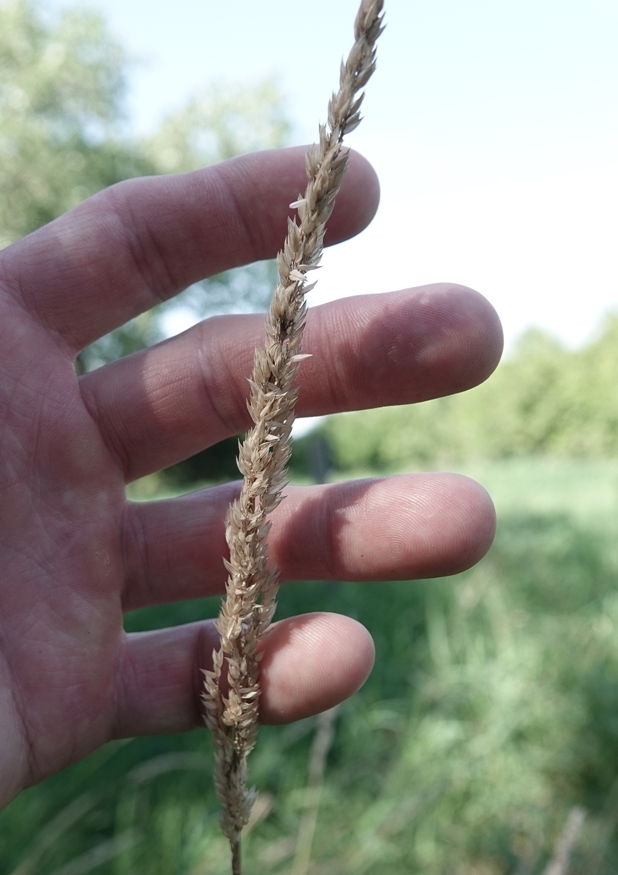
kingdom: Plantae
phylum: Tracheophyta
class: Liliopsida
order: Poales
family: Poaceae
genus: Phalaris
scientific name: Phalaris arundinacea
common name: Reed canary-grass
